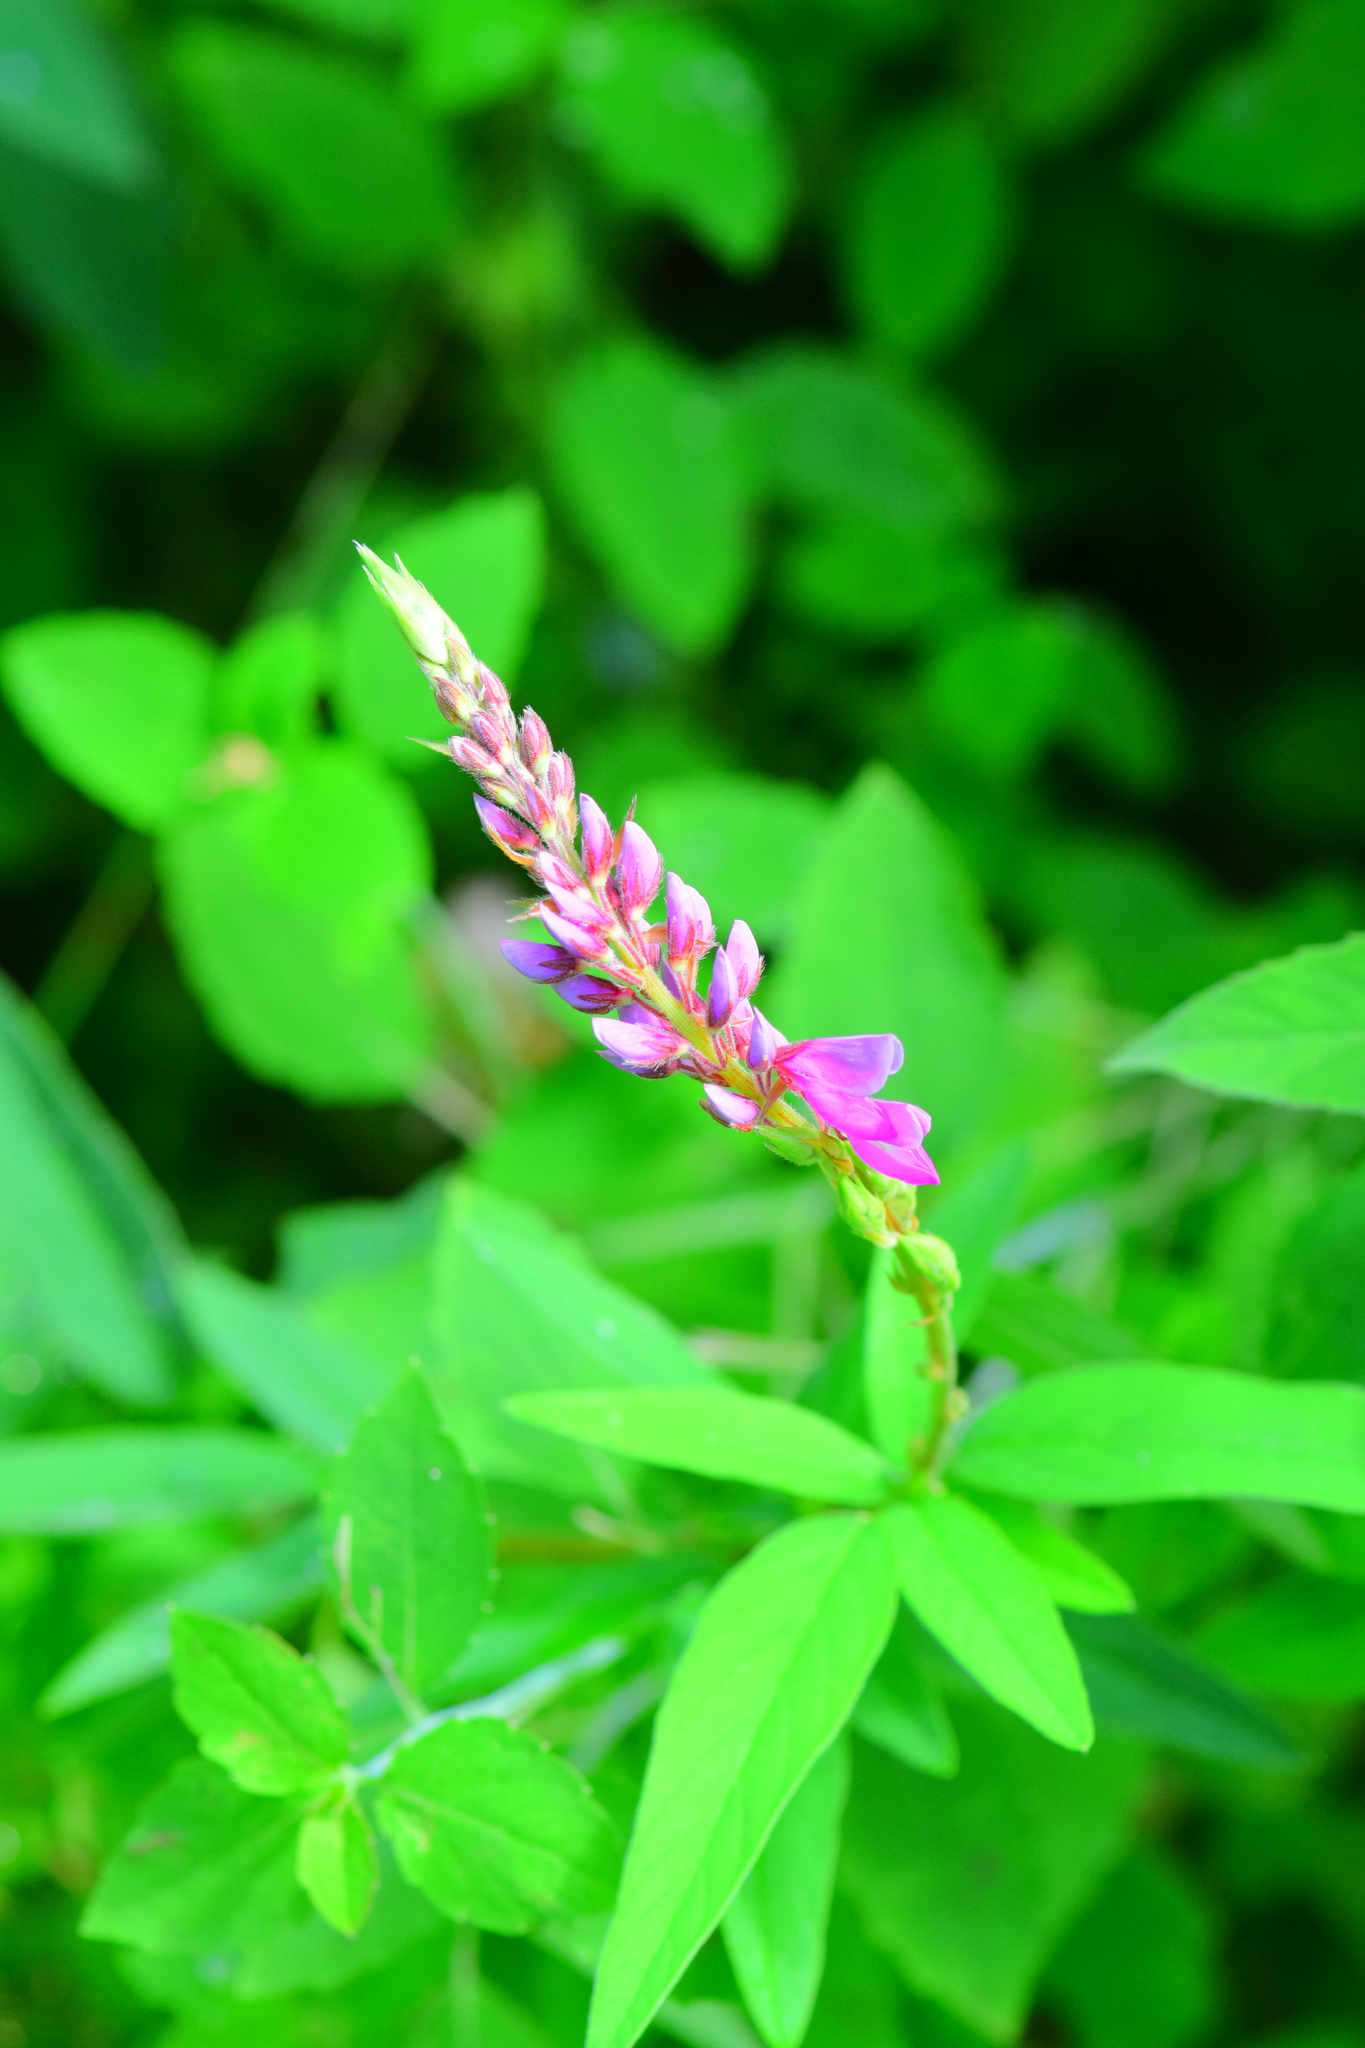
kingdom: Plantae
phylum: Tracheophyta
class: Magnoliopsida
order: Fabales
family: Fabaceae
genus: Desmodium
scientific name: Desmodium canadense
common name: Canada tick-trefoil
